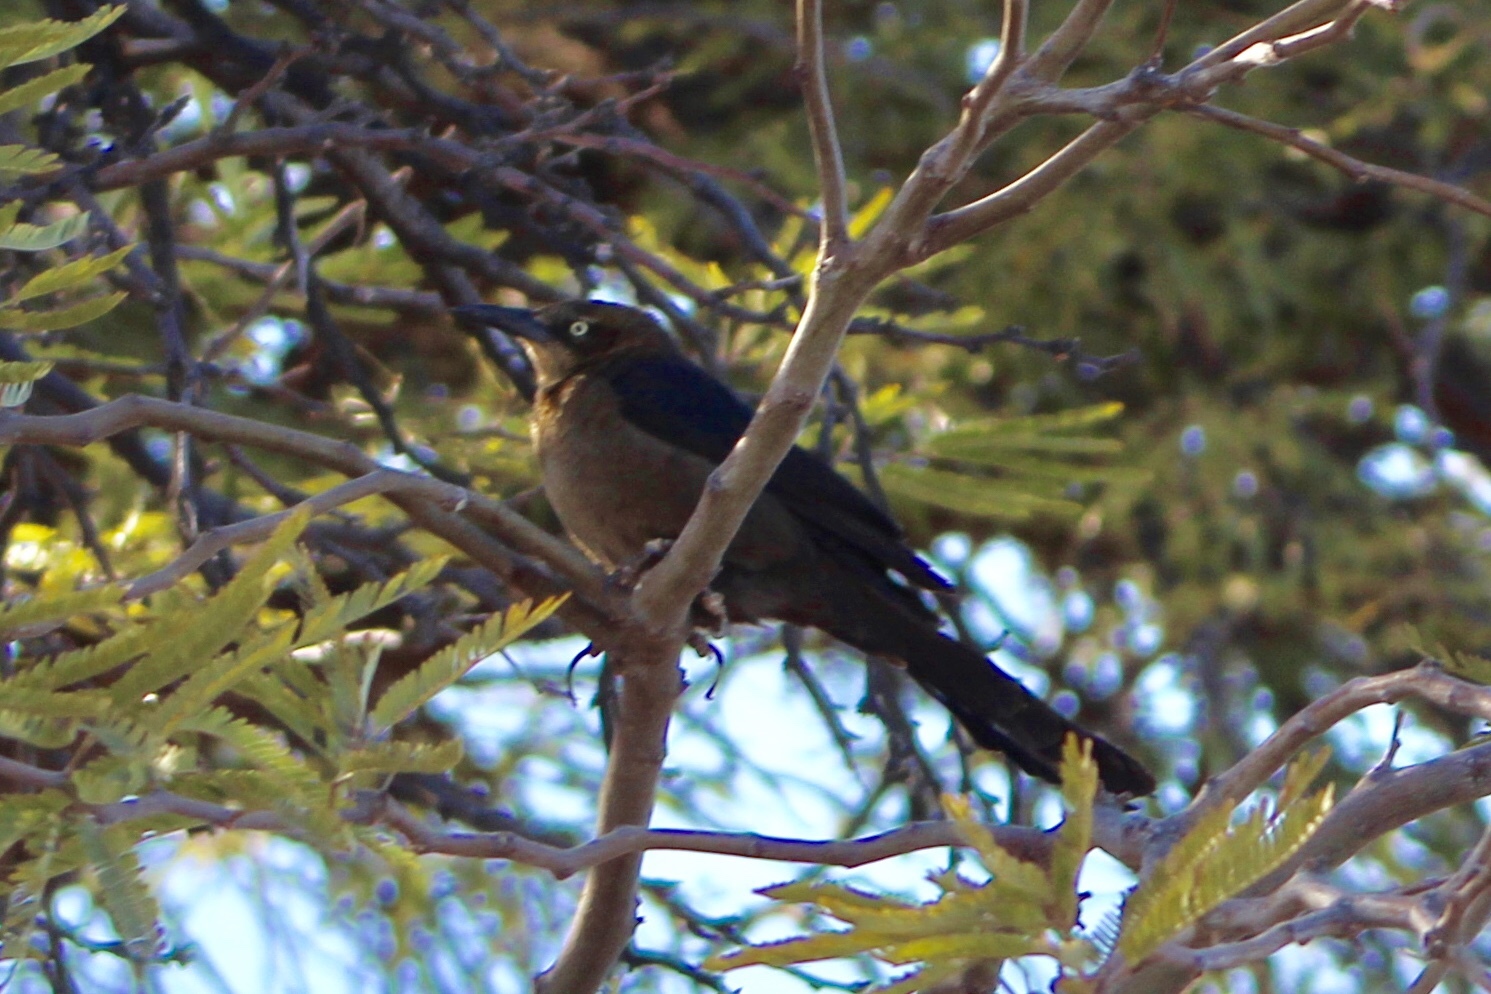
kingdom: Animalia
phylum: Chordata
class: Aves
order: Passeriformes
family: Icteridae
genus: Quiscalus
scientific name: Quiscalus mexicanus
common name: Great-tailed grackle
